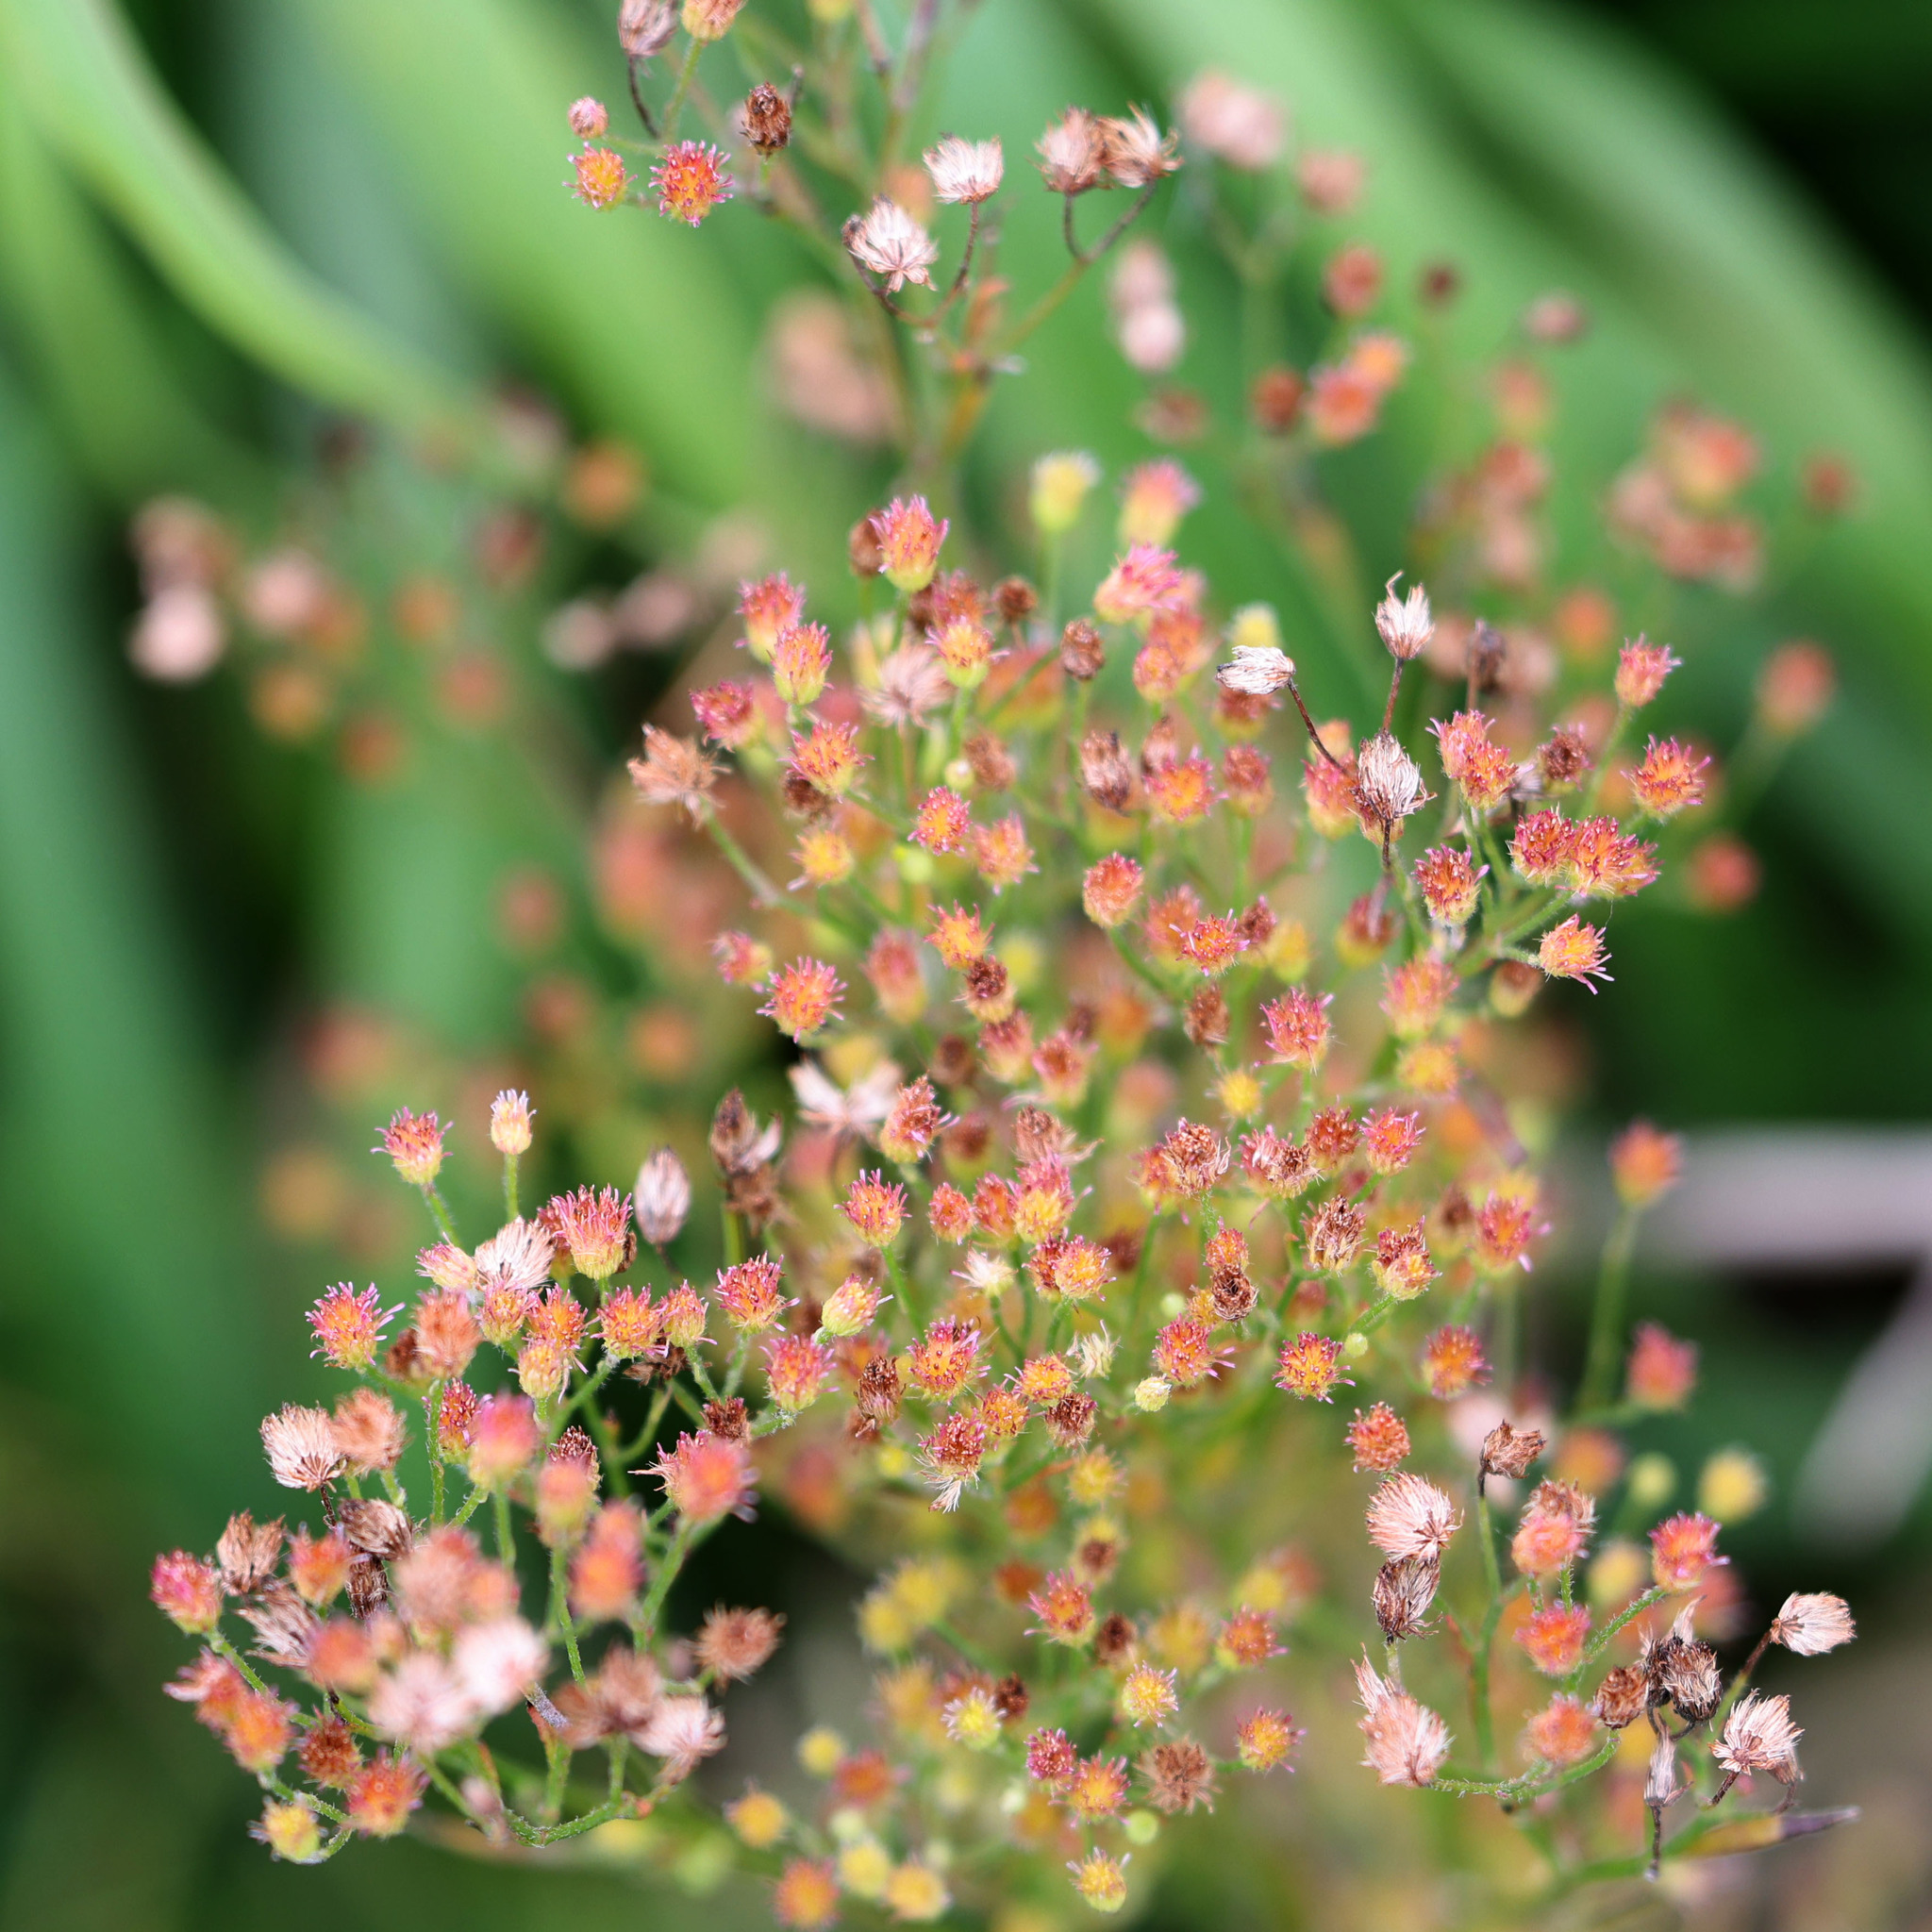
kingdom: Plantae
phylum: Tracheophyta
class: Magnoliopsida
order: Asterales
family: Asteraceae
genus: Erigeron
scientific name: Erigeron canadensis
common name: Canadian fleabane
